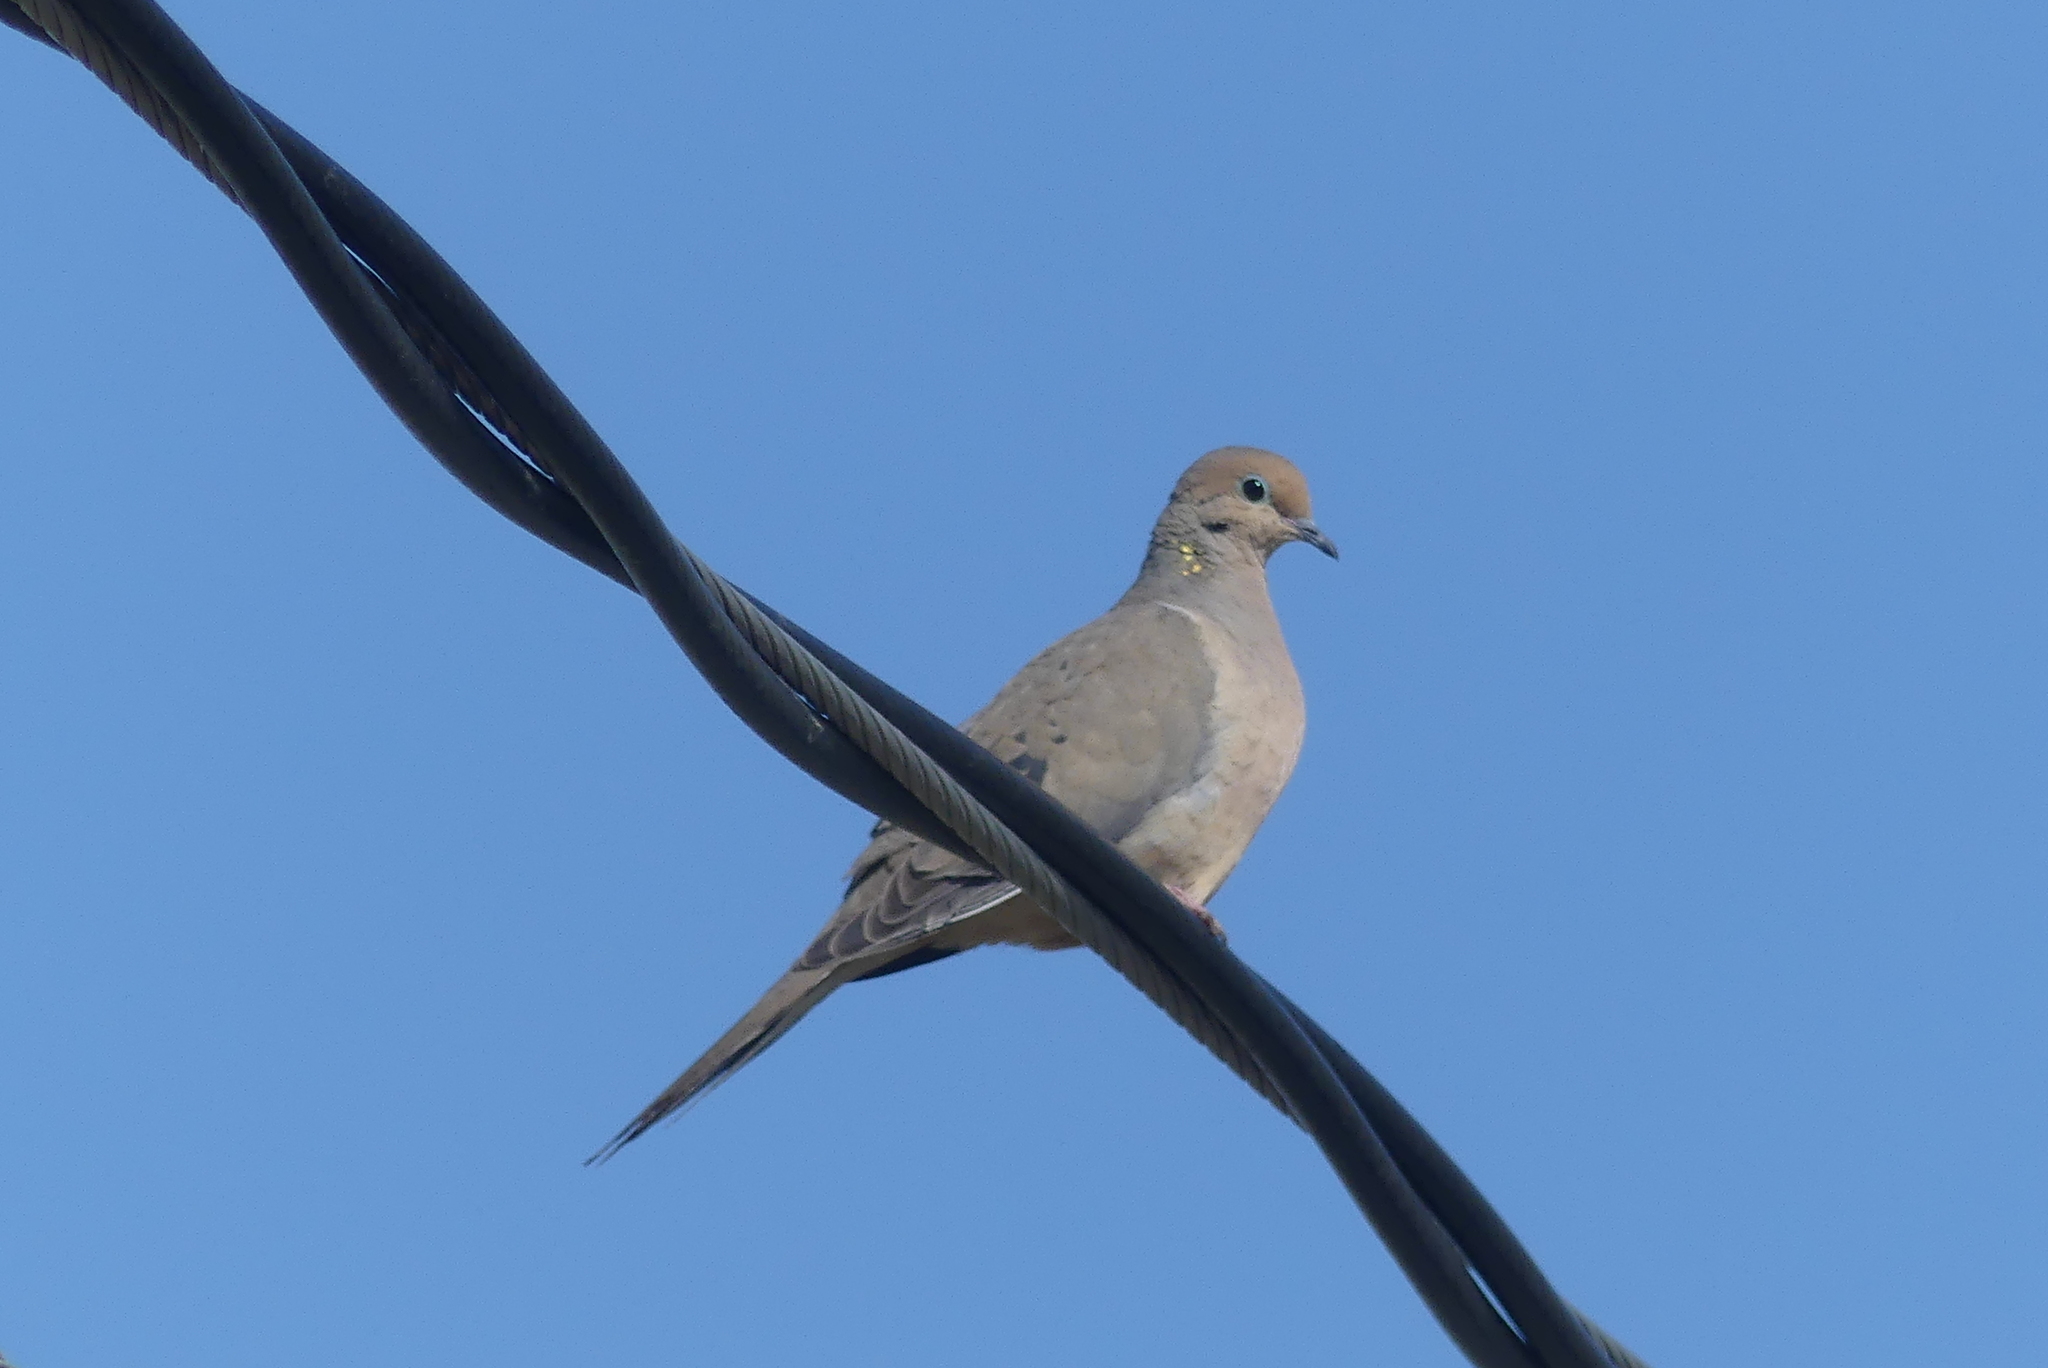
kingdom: Animalia
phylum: Chordata
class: Aves
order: Columbiformes
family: Columbidae
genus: Zenaida
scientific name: Zenaida macroura
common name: Mourning dove
